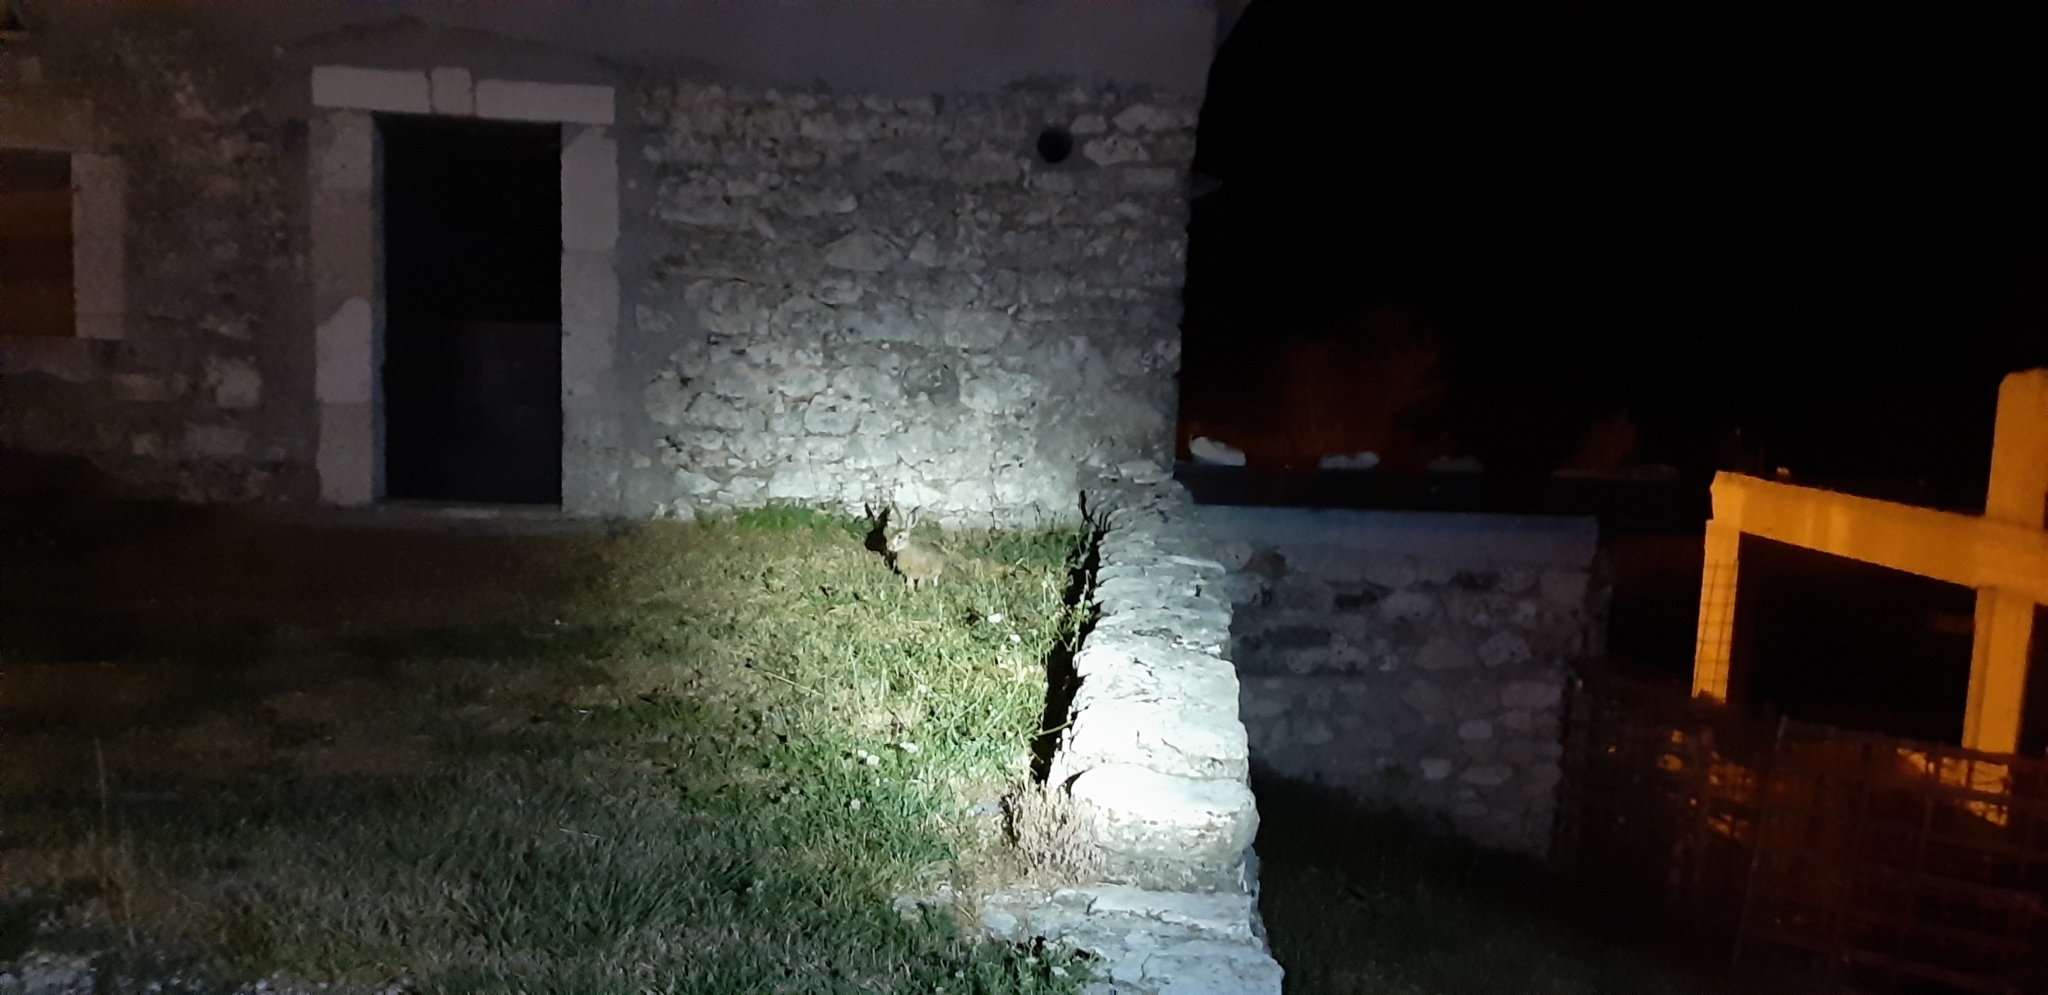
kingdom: Animalia
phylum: Chordata
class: Mammalia
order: Lagomorpha
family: Leporidae
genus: Lepus
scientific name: Lepus europaeus
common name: European hare
